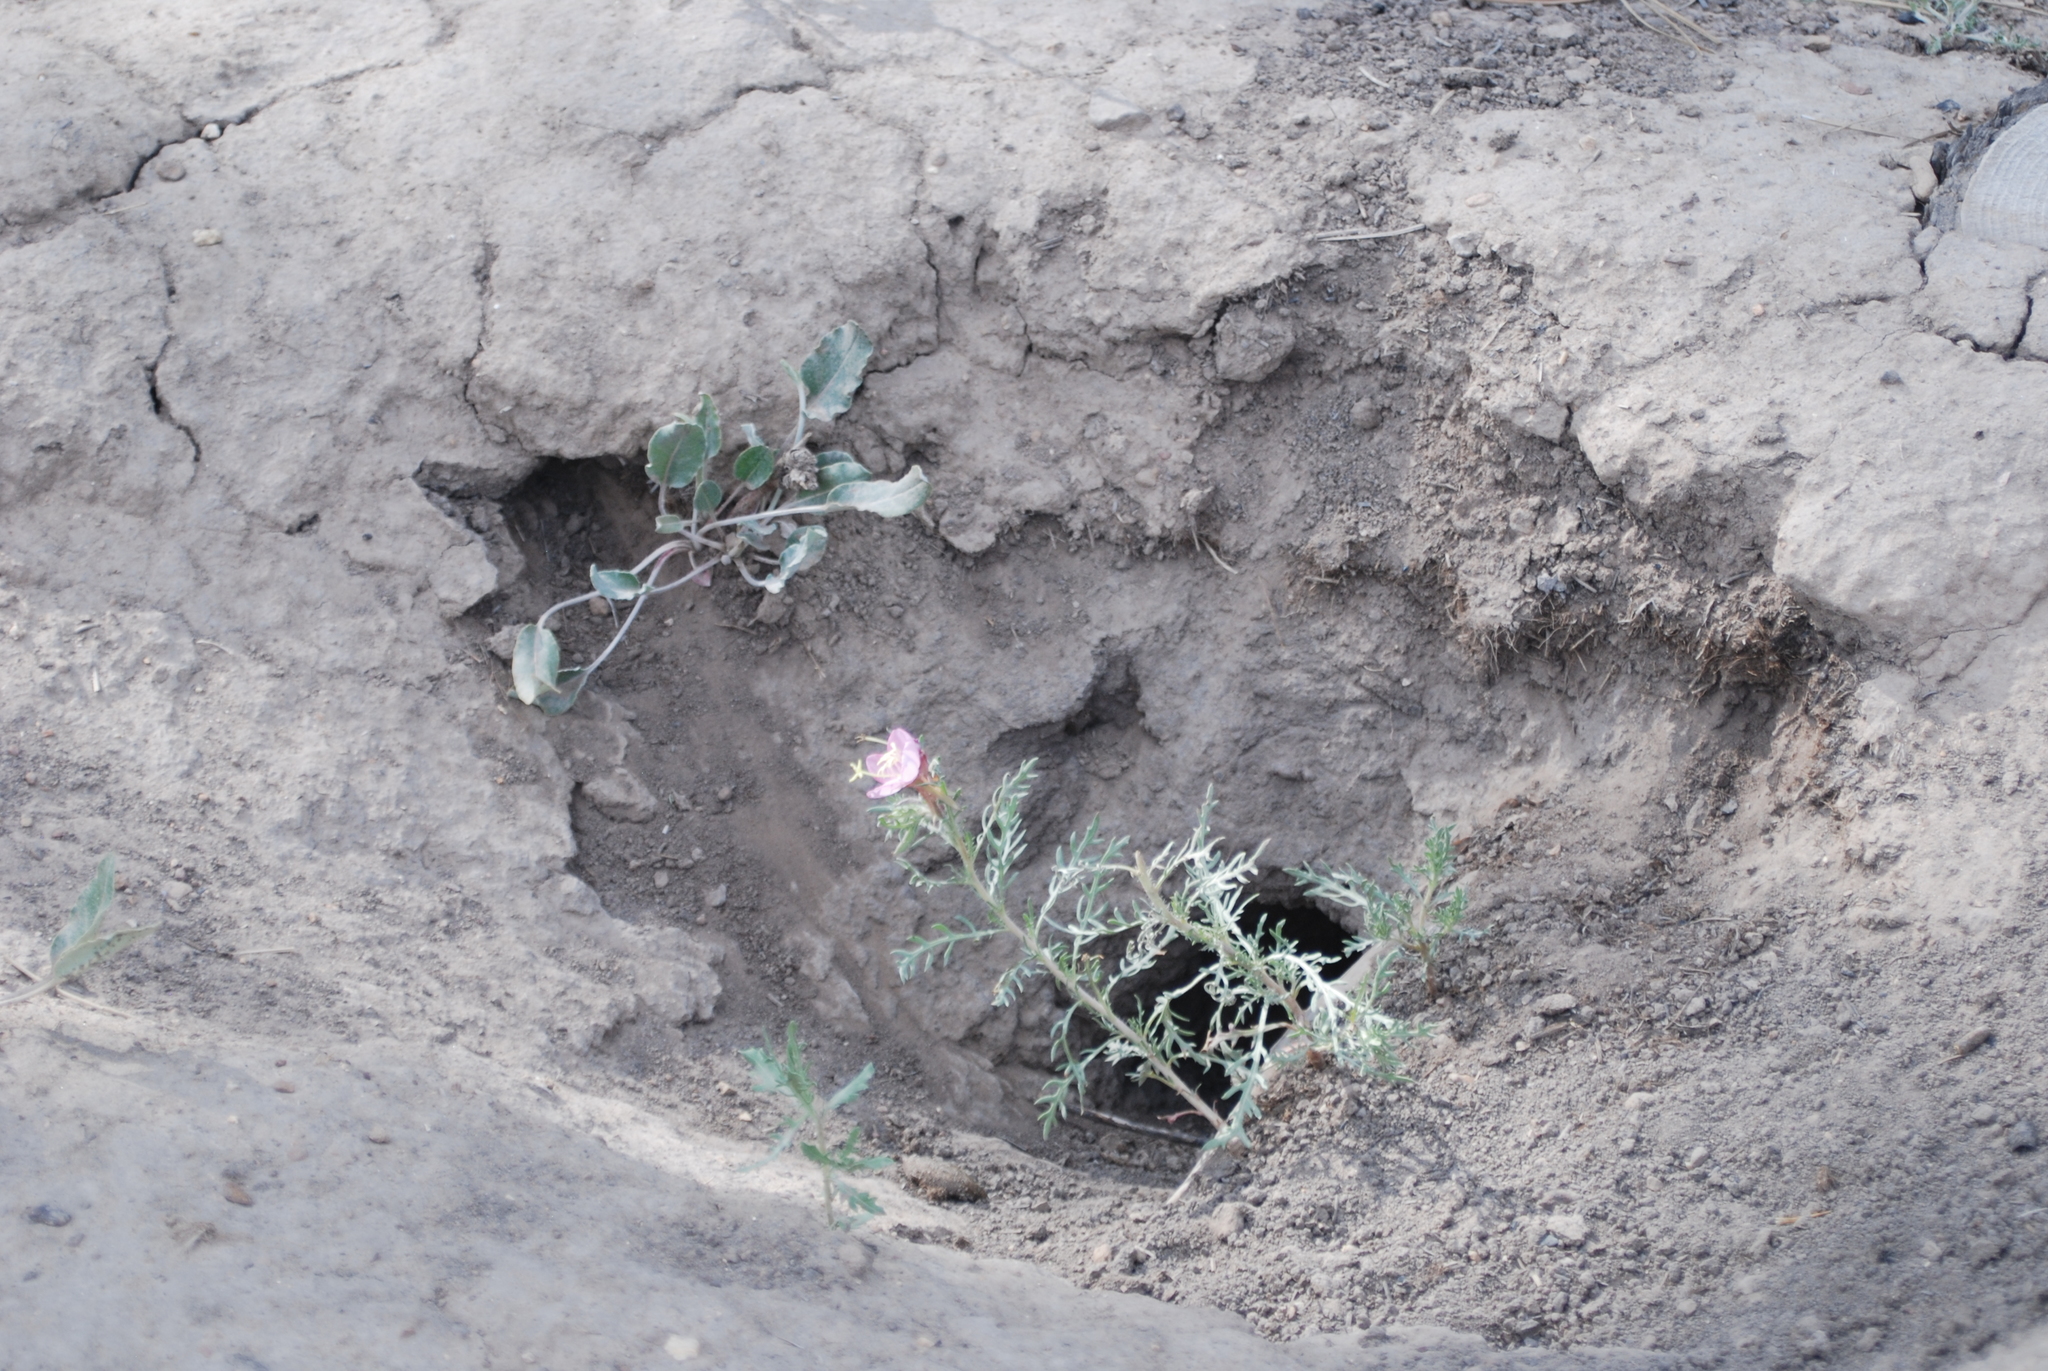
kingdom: Animalia
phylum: Chordata
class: Mammalia
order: Rodentia
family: Sciuridae
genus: Cynomys
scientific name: Cynomys gunnisoni
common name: Gunnison's prairie dog
